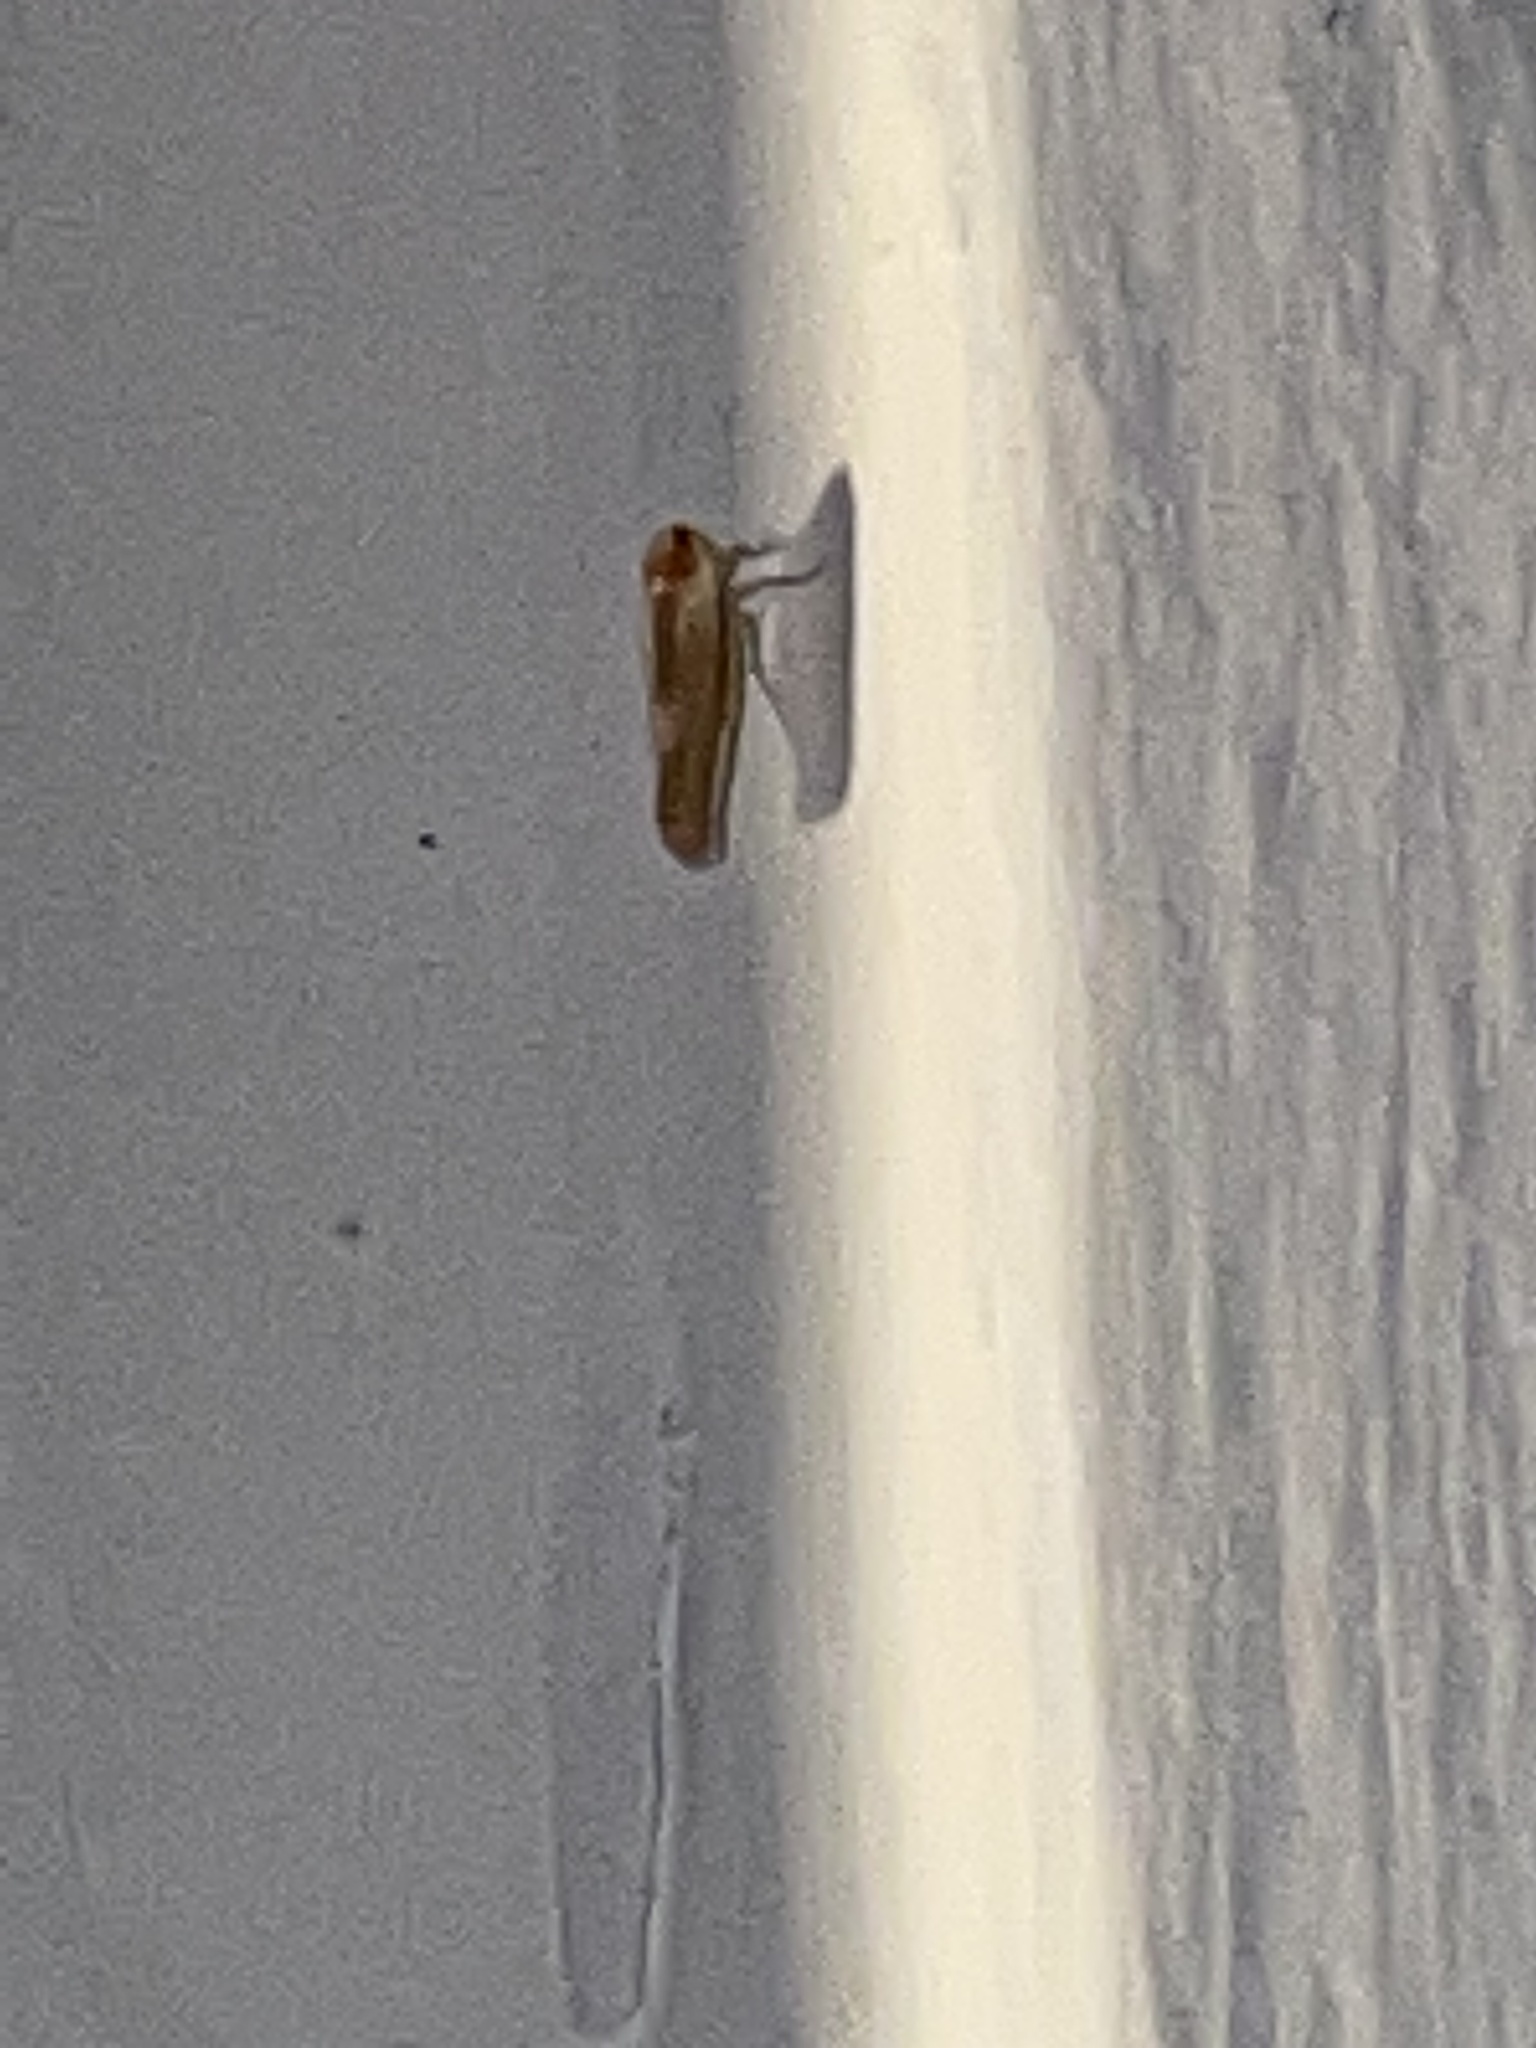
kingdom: Animalia
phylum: Arthropoda
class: Insecta
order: Hemiptera
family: Derbidae
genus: Omolicna
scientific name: Omolicna uhleri
